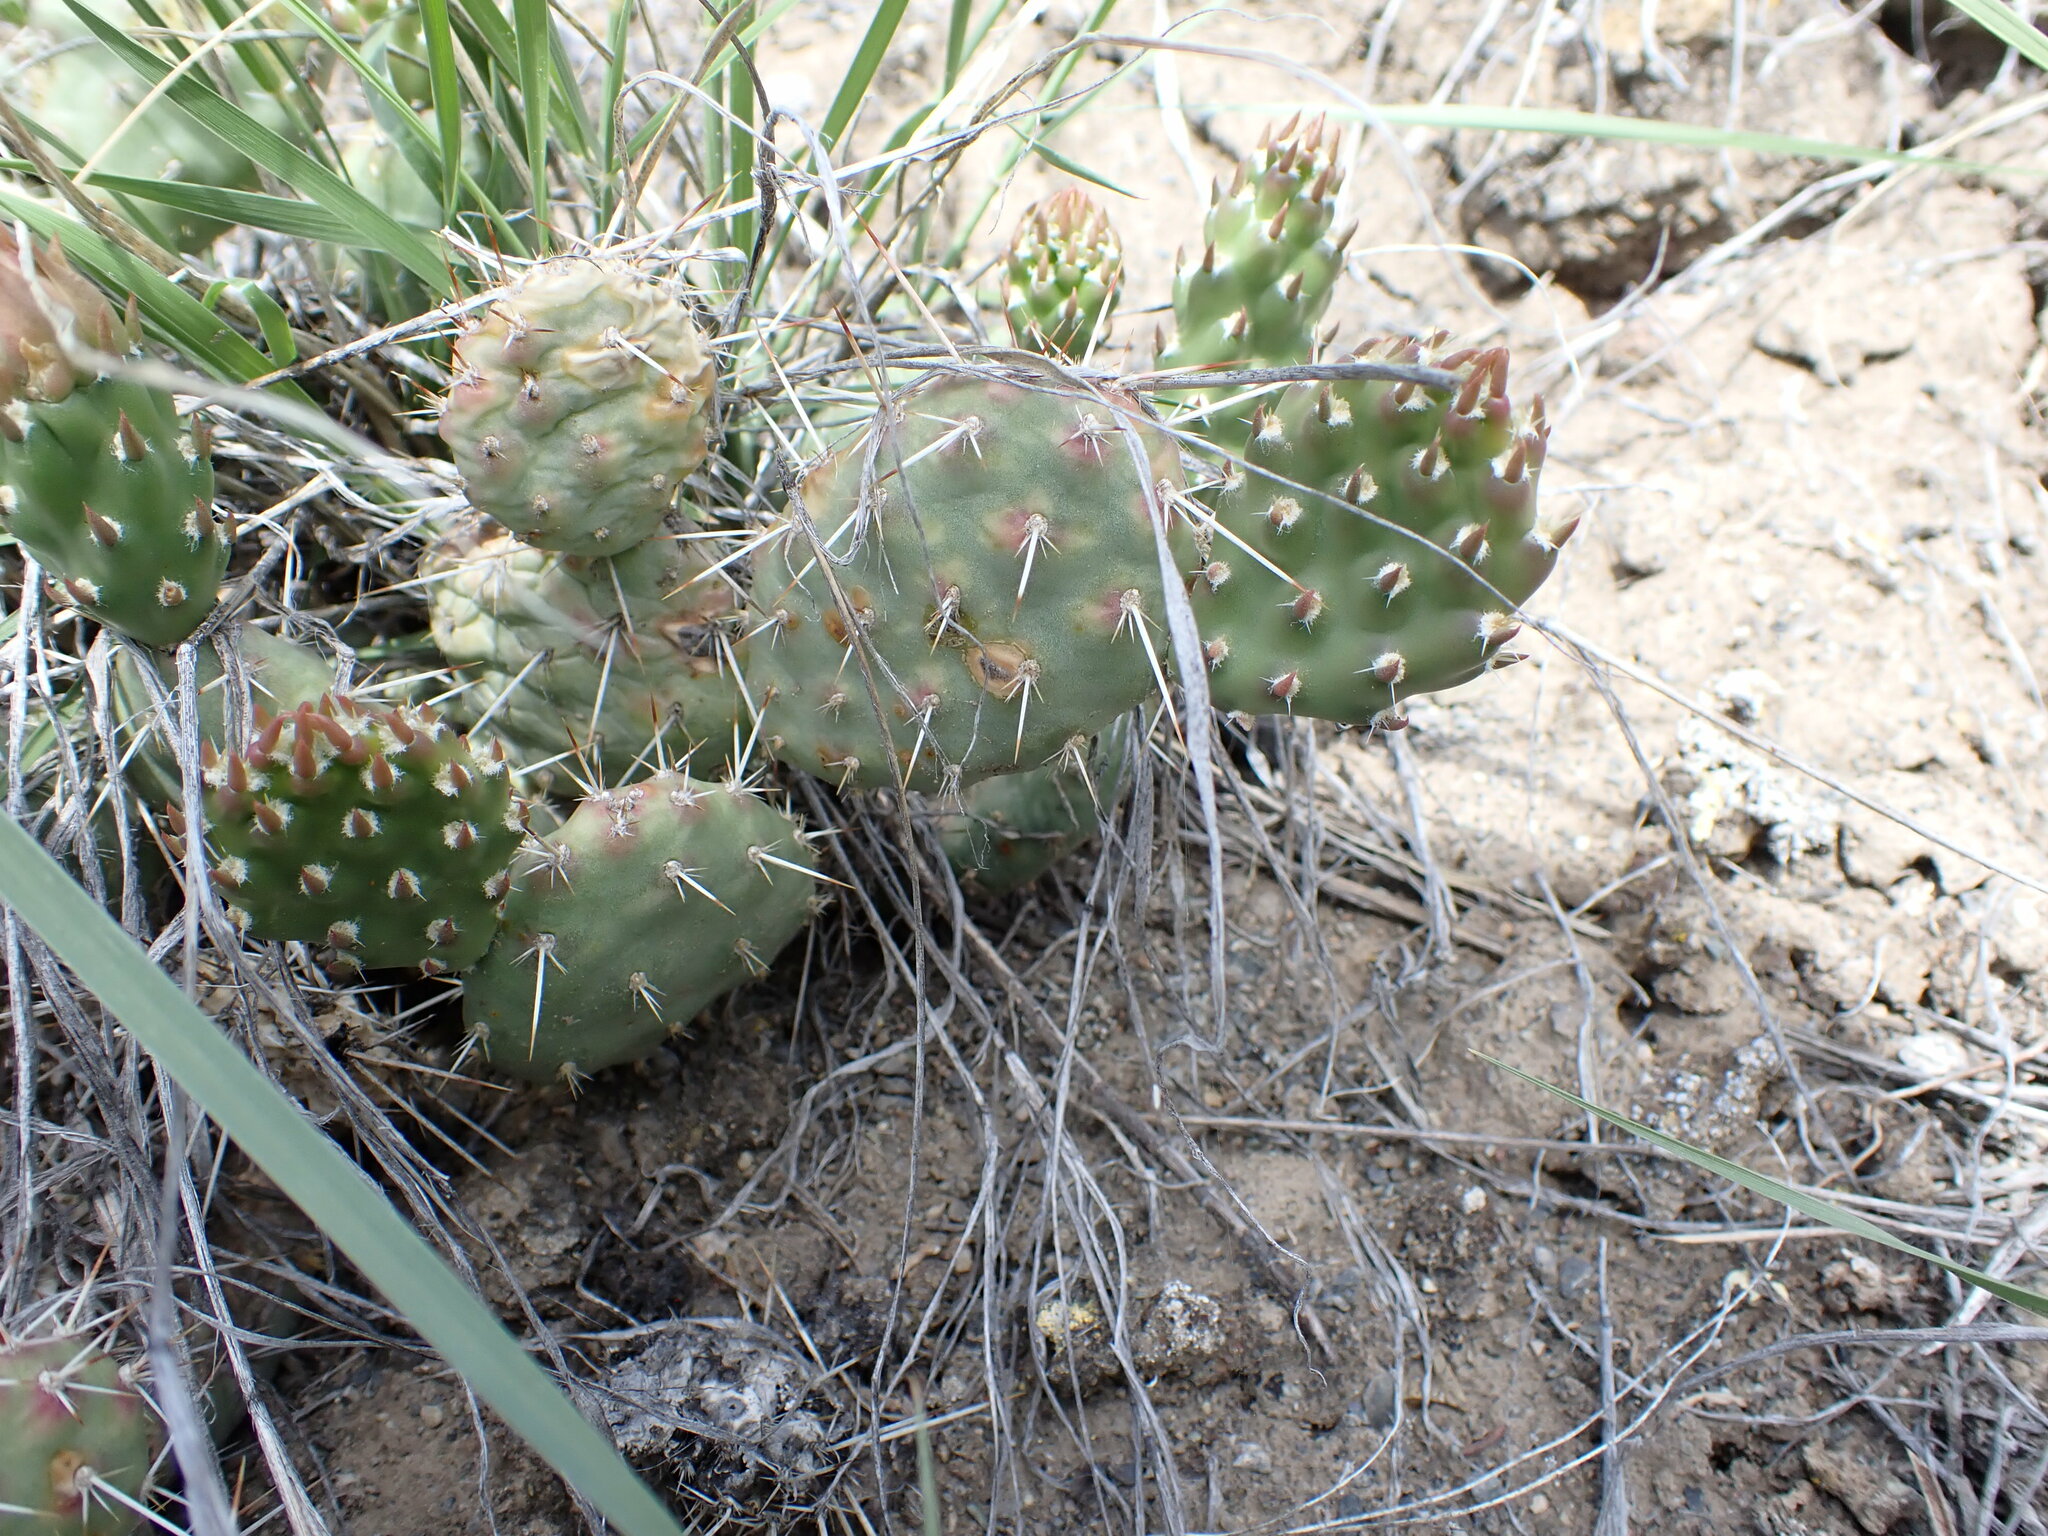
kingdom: Plantae
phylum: Tracheophyta
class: Magnoliopsida
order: Caryophyllales
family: Cactaceae
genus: Opuntia
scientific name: Opuntia fragilis
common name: Brittle cactus
